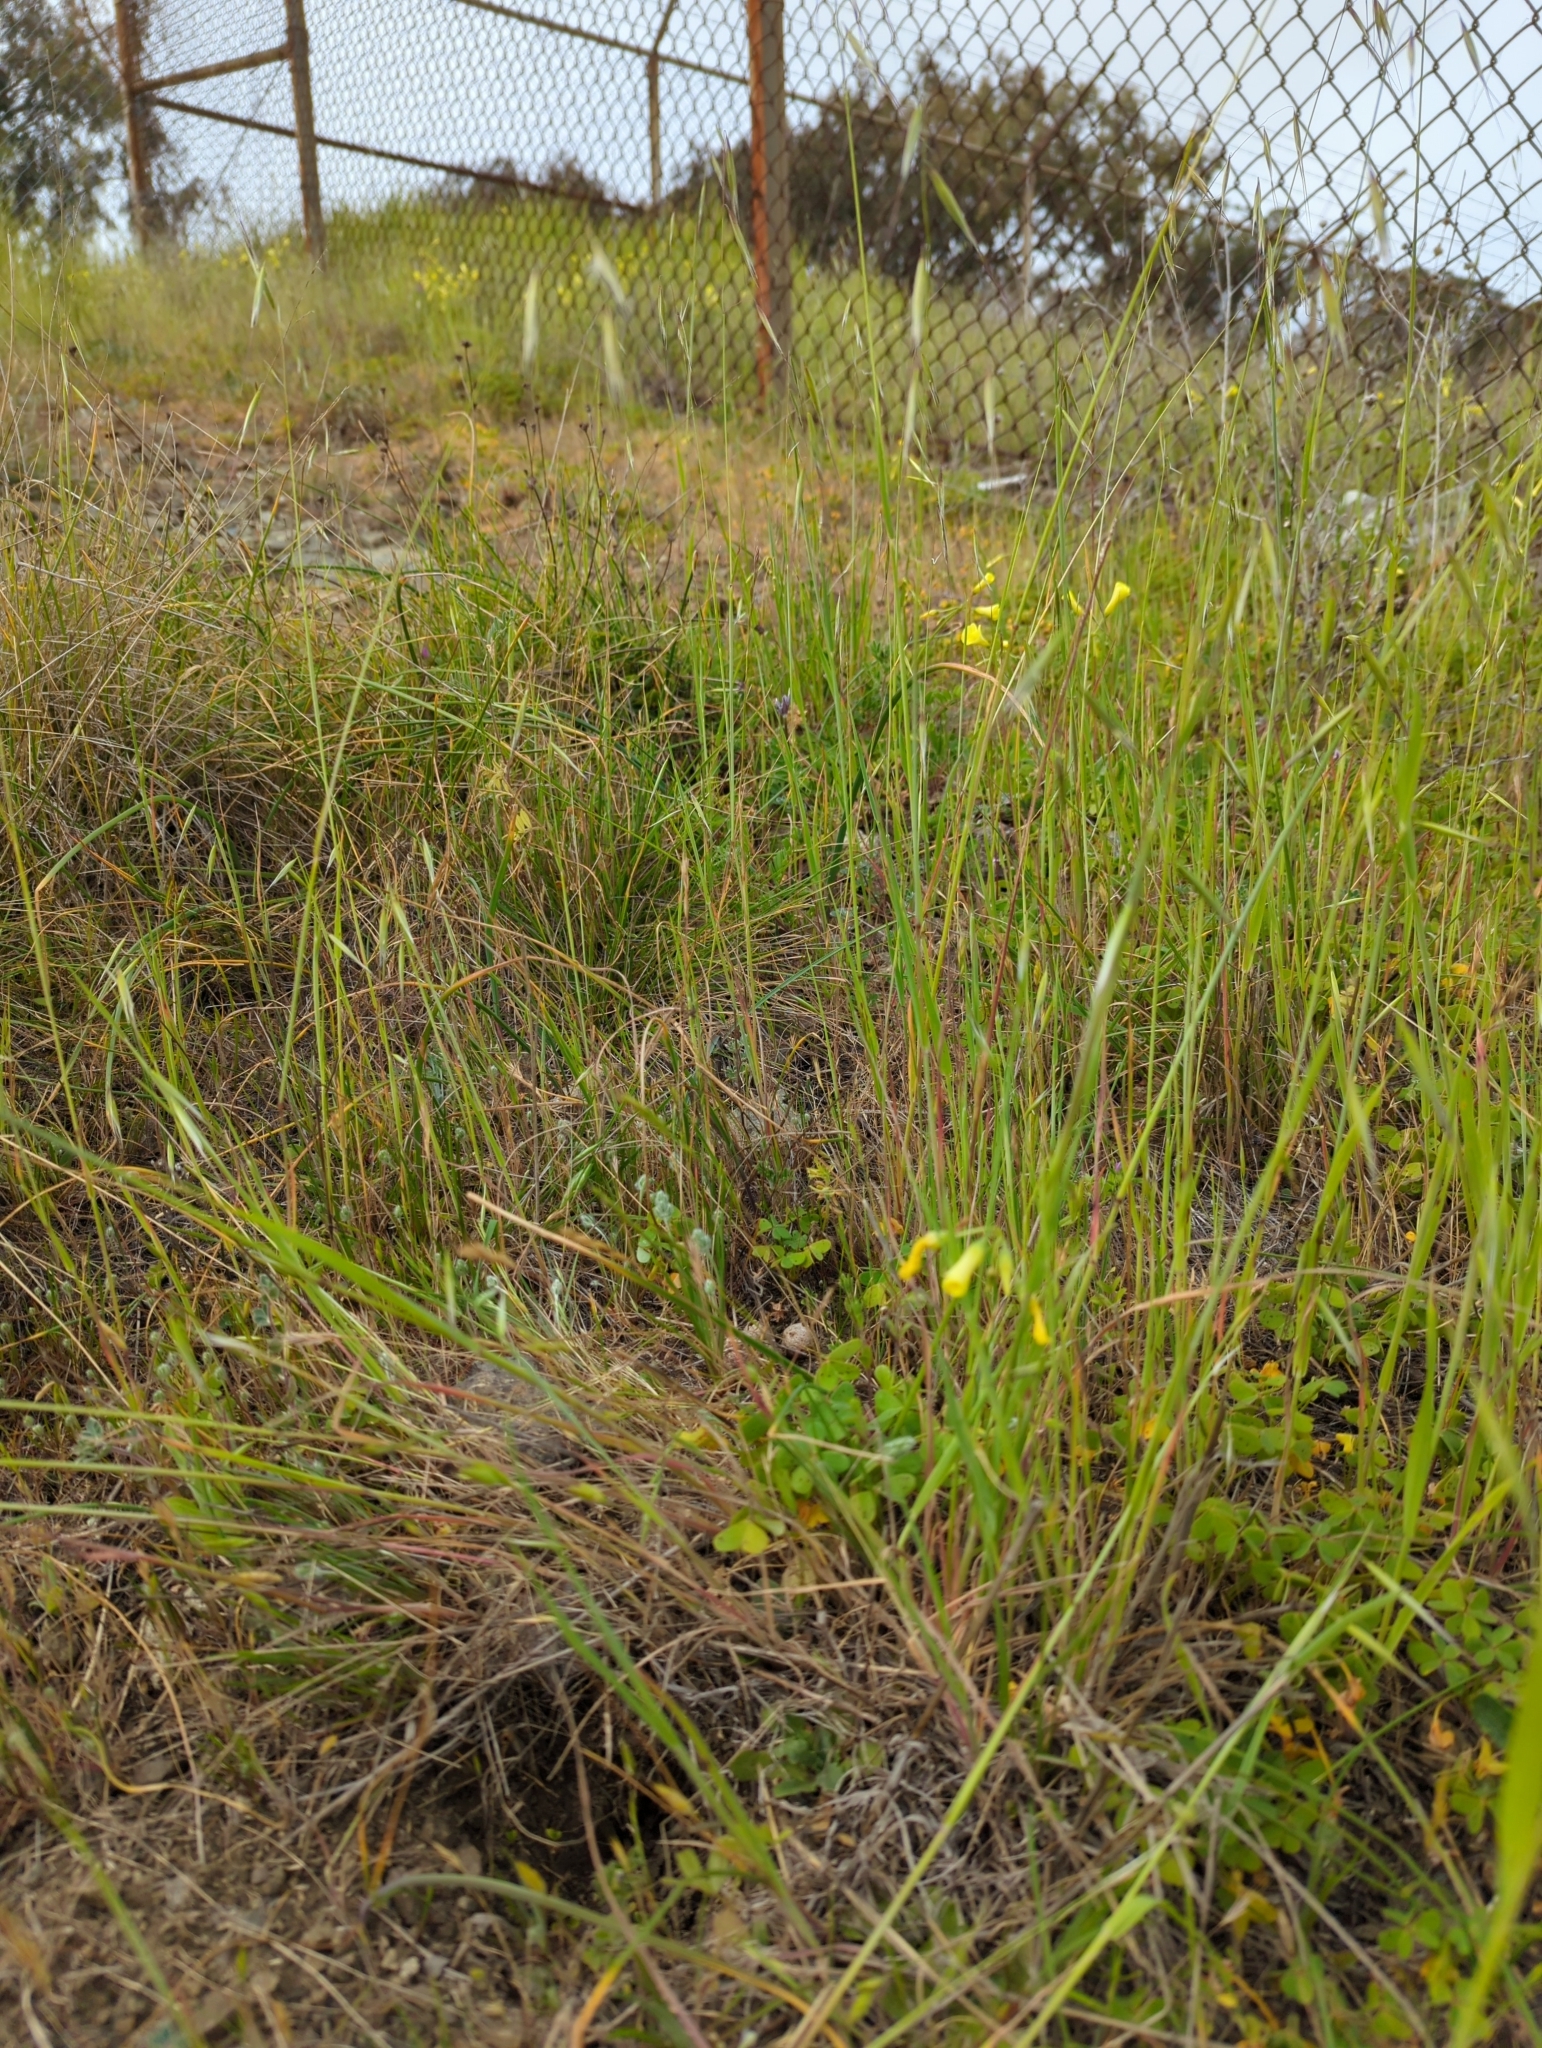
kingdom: Plantae
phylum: Tracheophyta
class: Magnoliopsida
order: Lamiales
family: Plantaginaceae
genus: Plantago
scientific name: Plantago erecta
